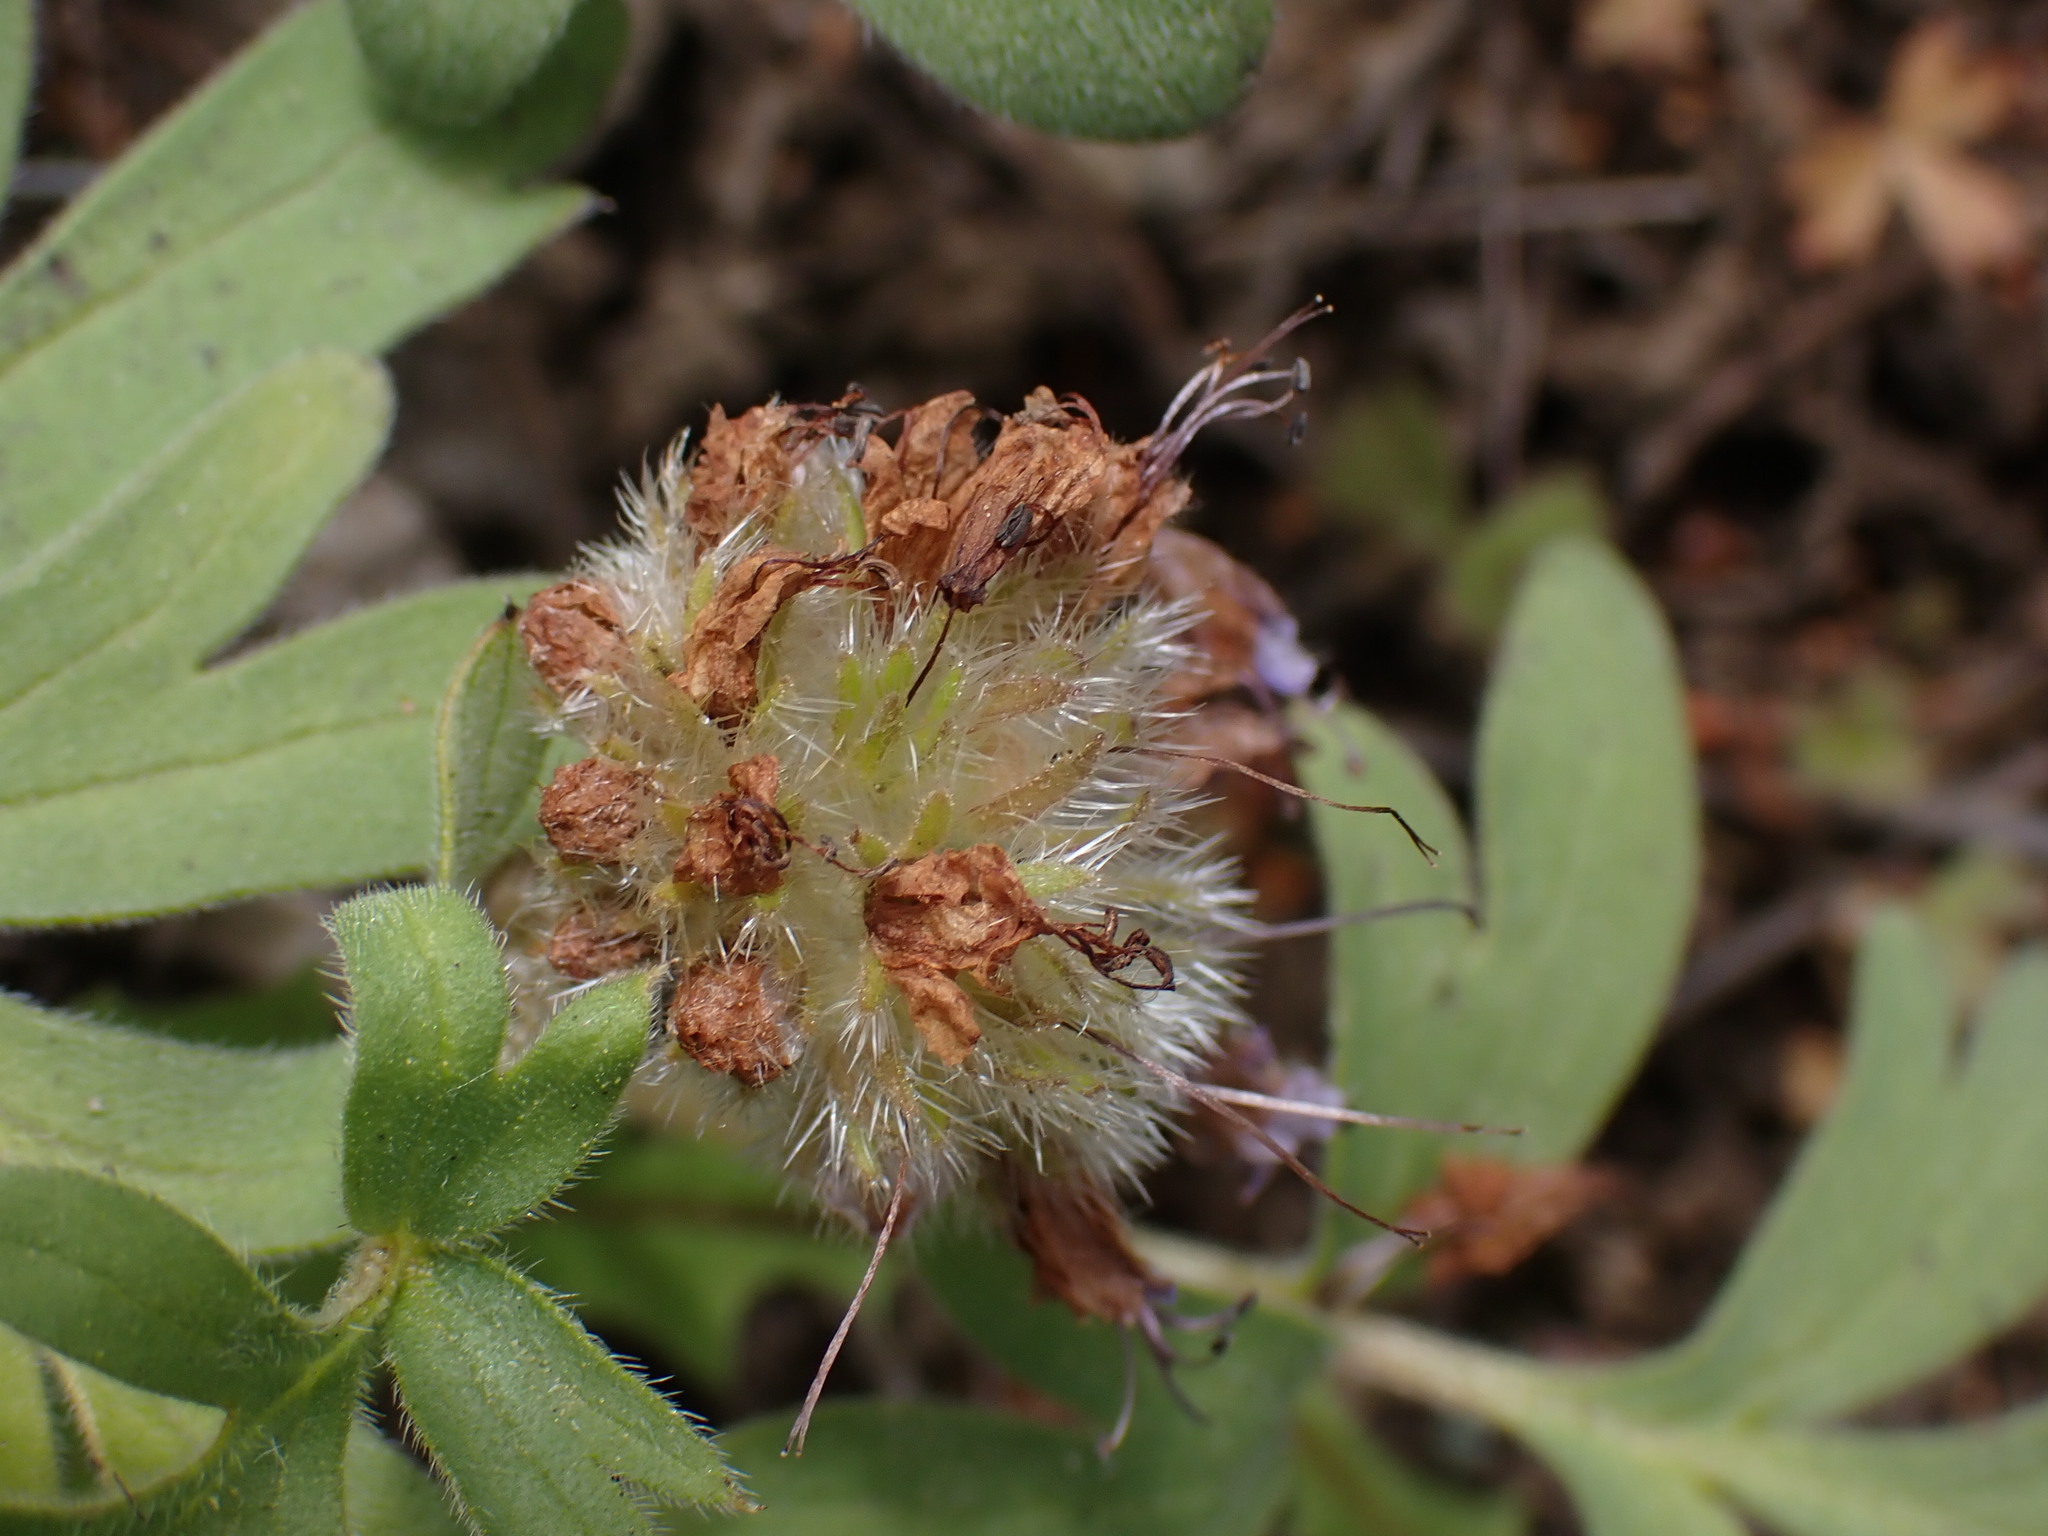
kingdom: Plantae
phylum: Tracheophyta
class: Magnoliopsida
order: Boraginales
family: Hydrophyllaceae
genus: Hydrophyllum
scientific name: Hydrophyllum capitatum
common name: Woollen-breeches
